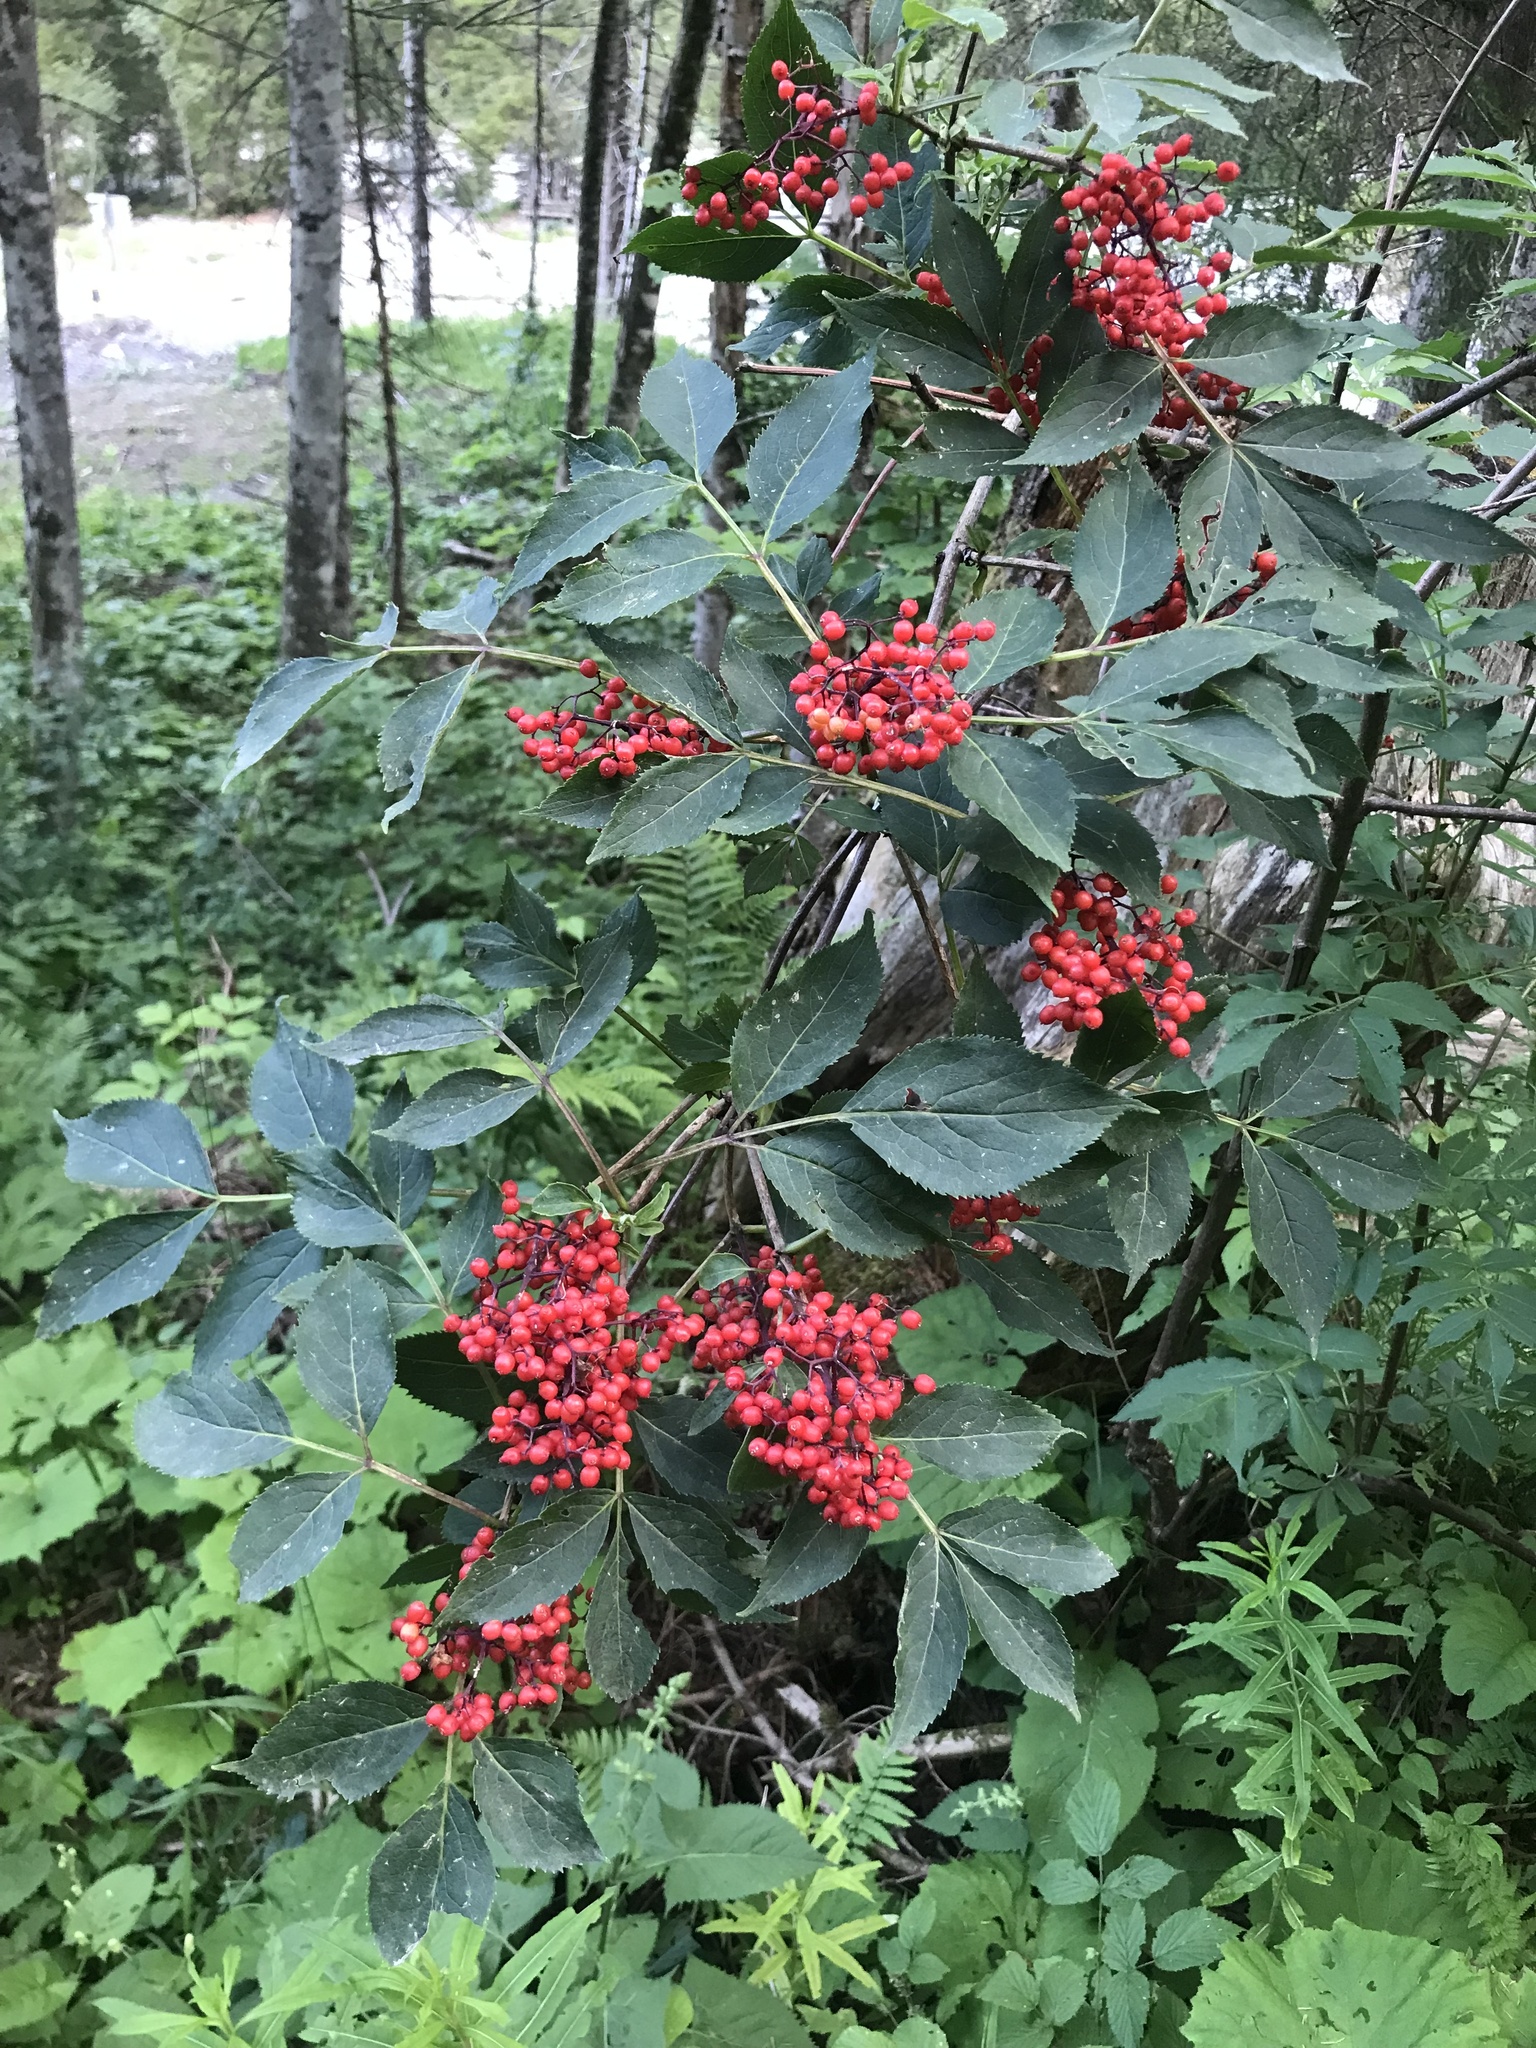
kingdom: Plantae
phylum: Tracheophyta
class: Magnoliopsida
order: Dipsacales
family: Viburnaceae
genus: Sambucus
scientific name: Sambucus racemosa
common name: Red-berried elder
